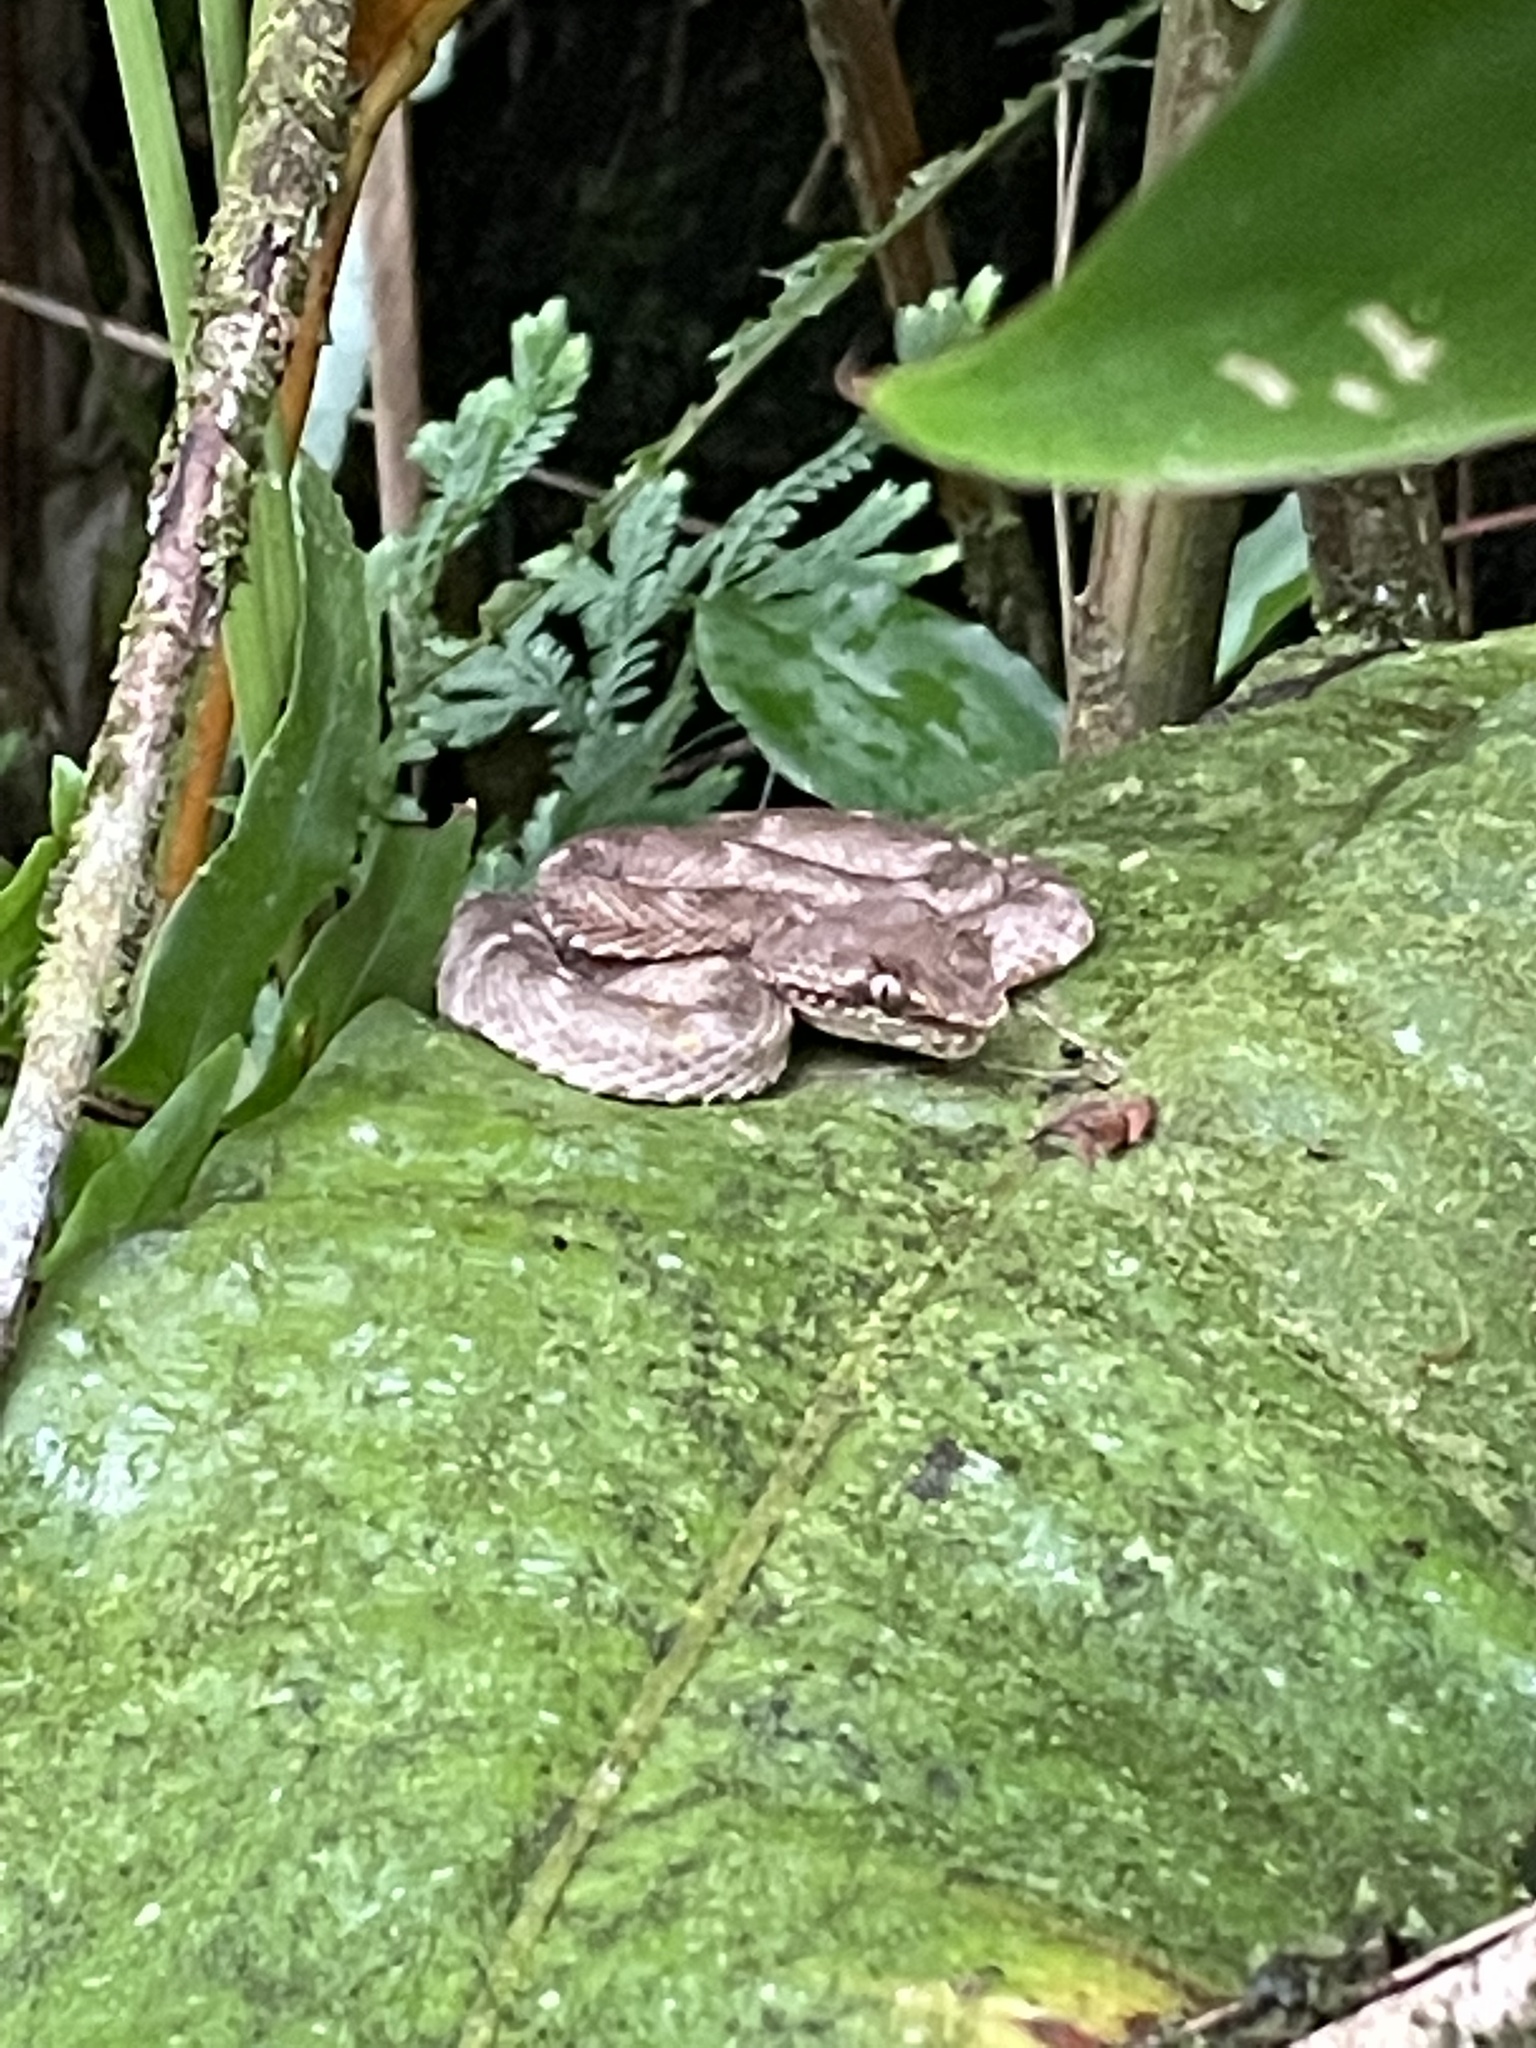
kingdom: Animalia
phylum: Chordata
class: Squamata
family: Viperidae
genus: Bothriechis
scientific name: Bothriechis schlegelii
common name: Eyelash viper
